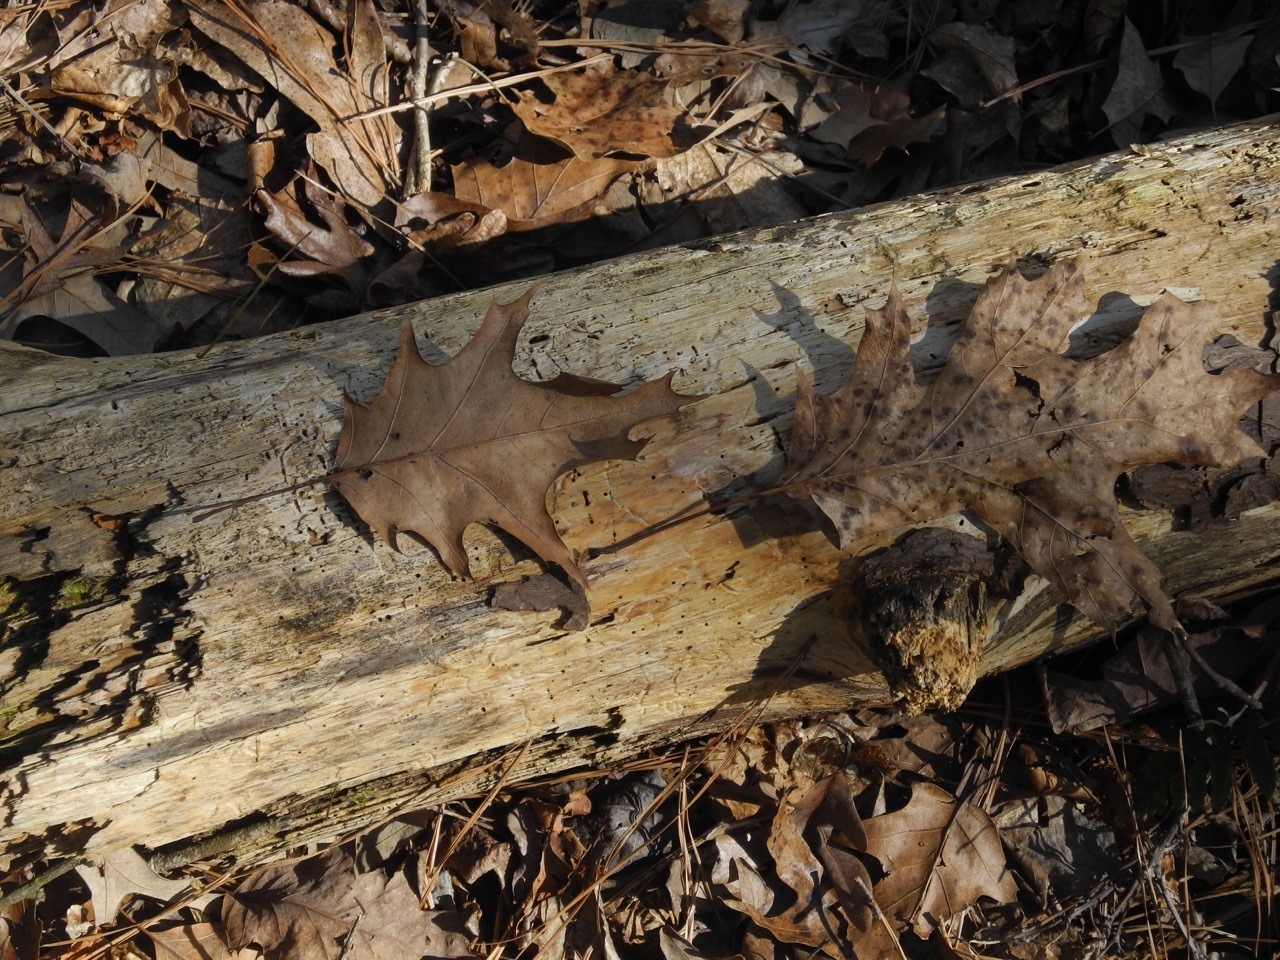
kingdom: Plantae
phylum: Tracheophyta
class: Magnoliopsida
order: Fagales
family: Fagaceae
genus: Quercus
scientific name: Quercus rubra
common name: Red oak
